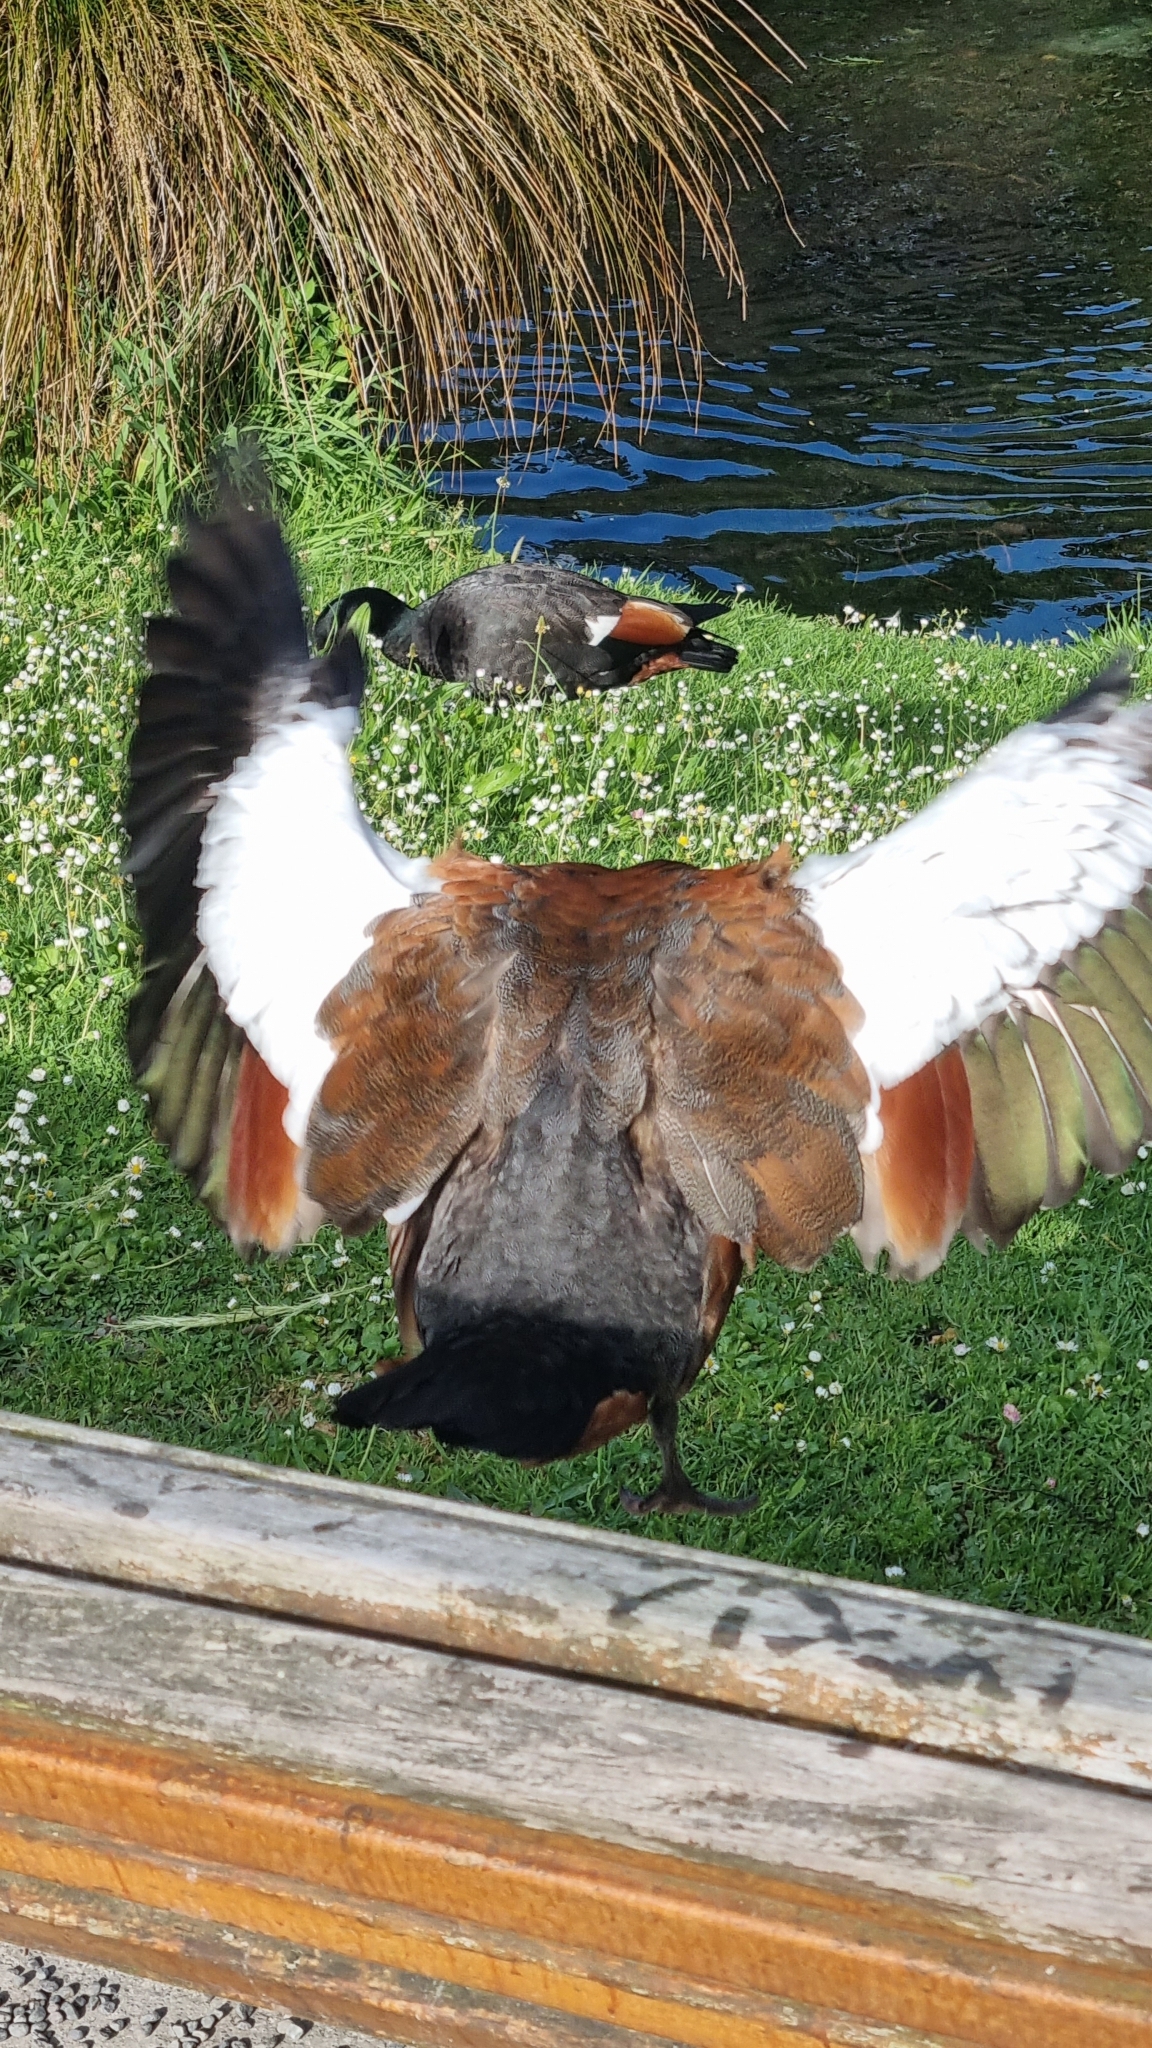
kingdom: Animalia
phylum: Chordata
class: Aves
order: Anseriformes
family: Anatidae
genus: Tadorna
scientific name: Tadorna variegata
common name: Paradise shelduck
